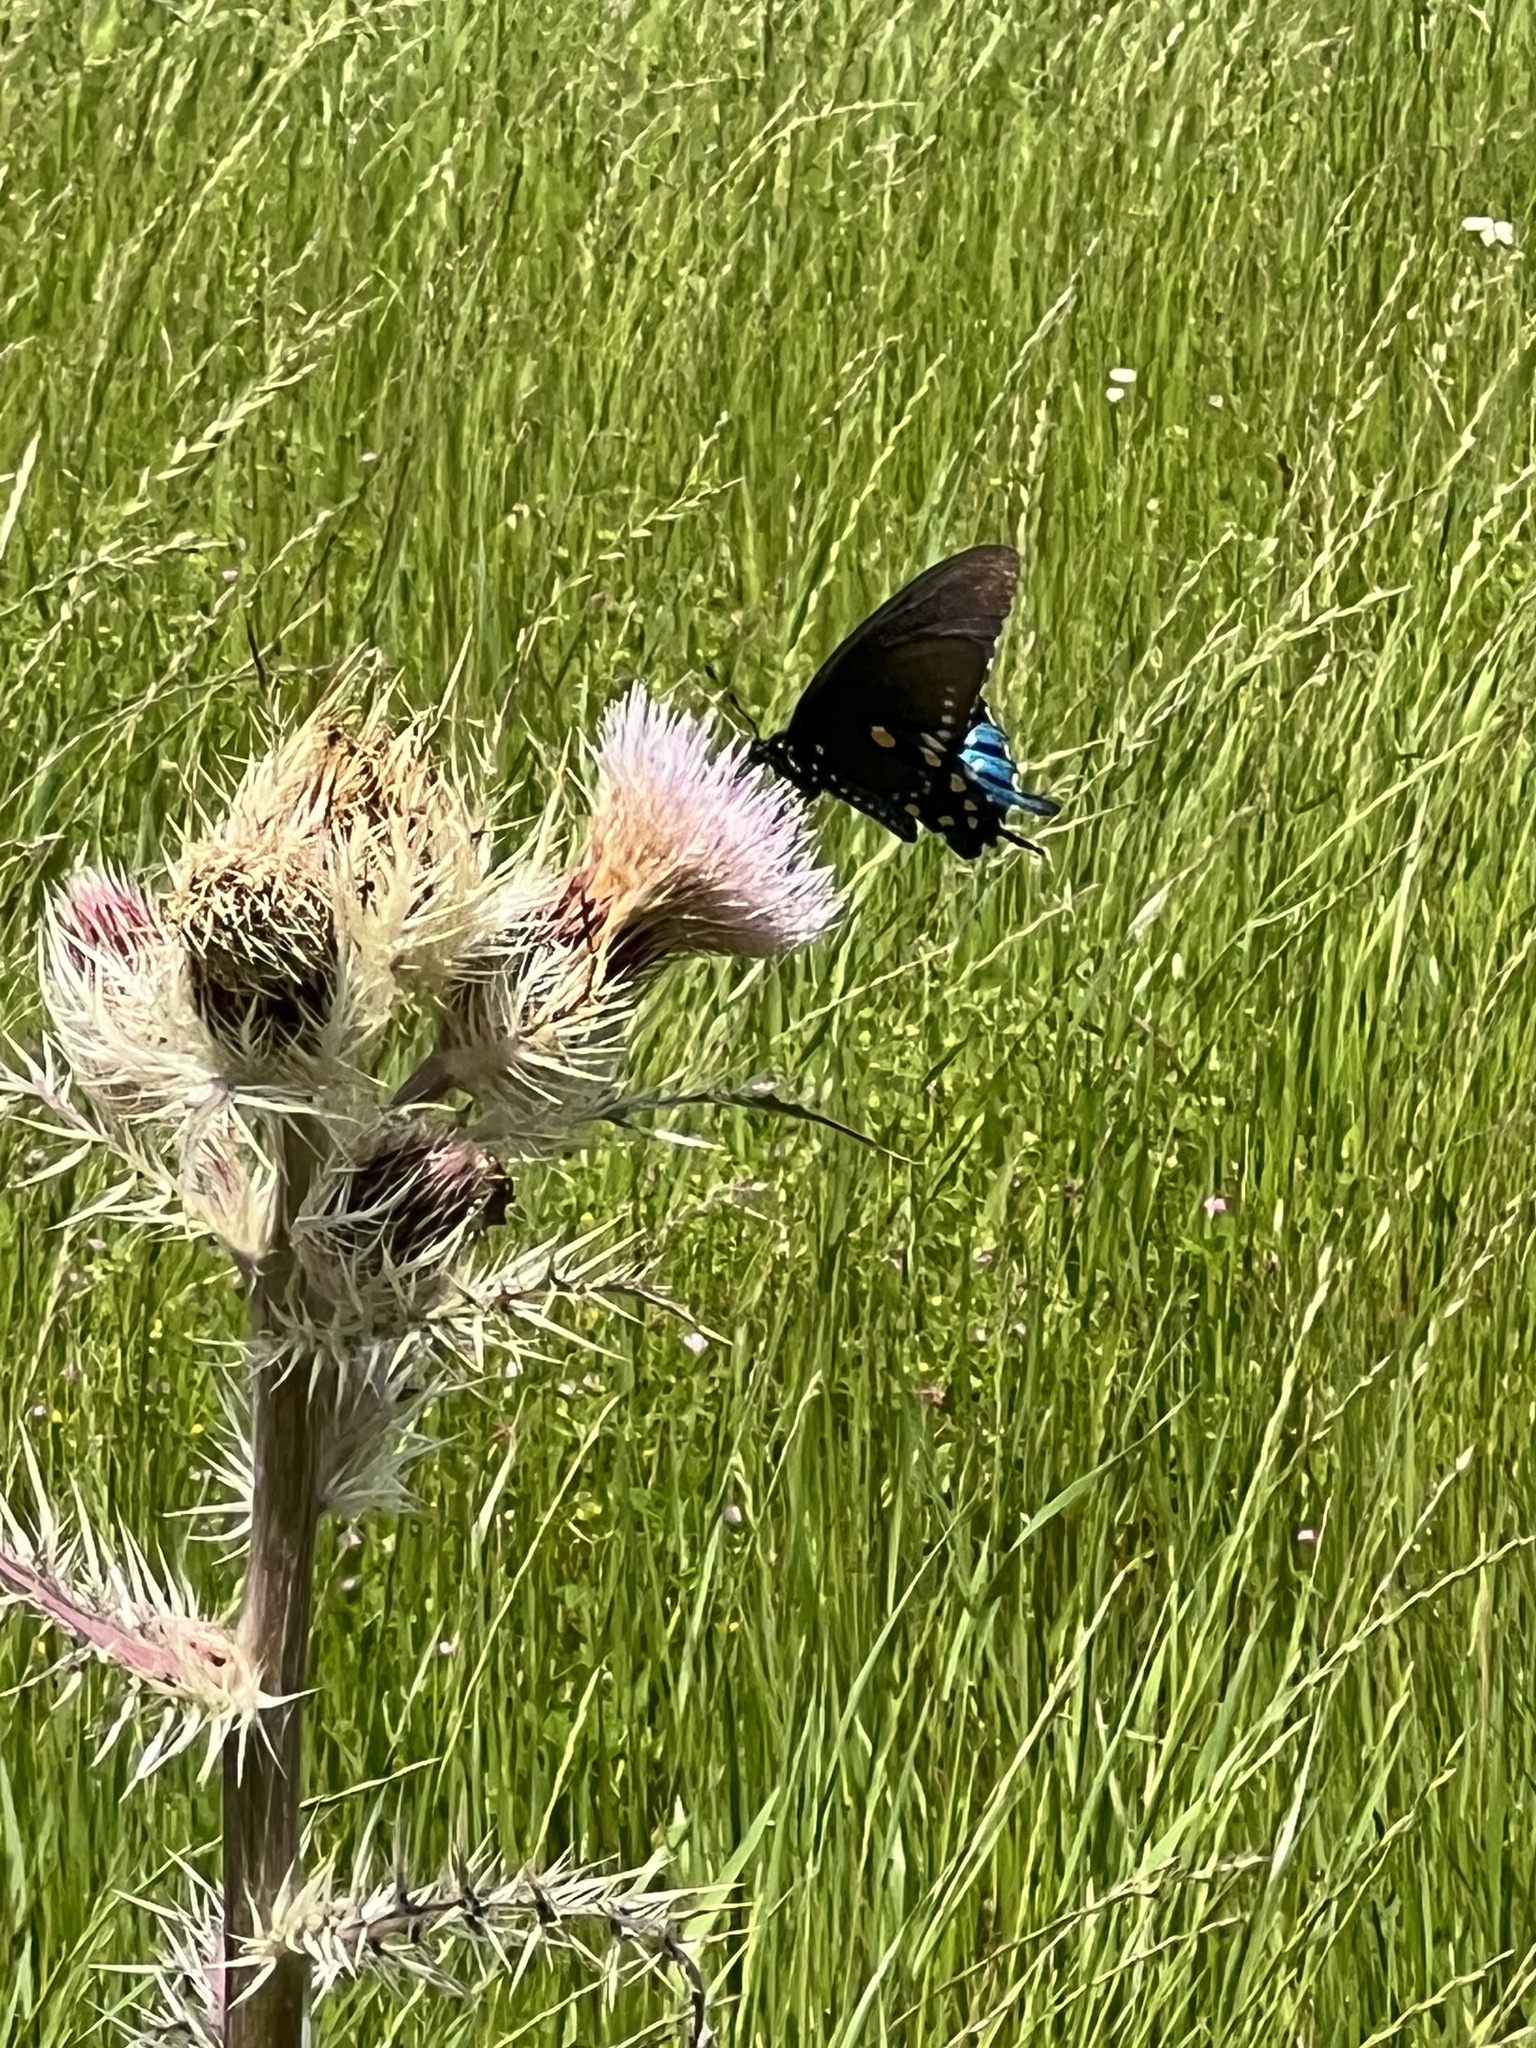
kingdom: Animalia
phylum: Arthropoda
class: Insecta
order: Lepidoptera
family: Papilionidae
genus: Battus
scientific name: Battus philenor
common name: Pipevine swallowtail
